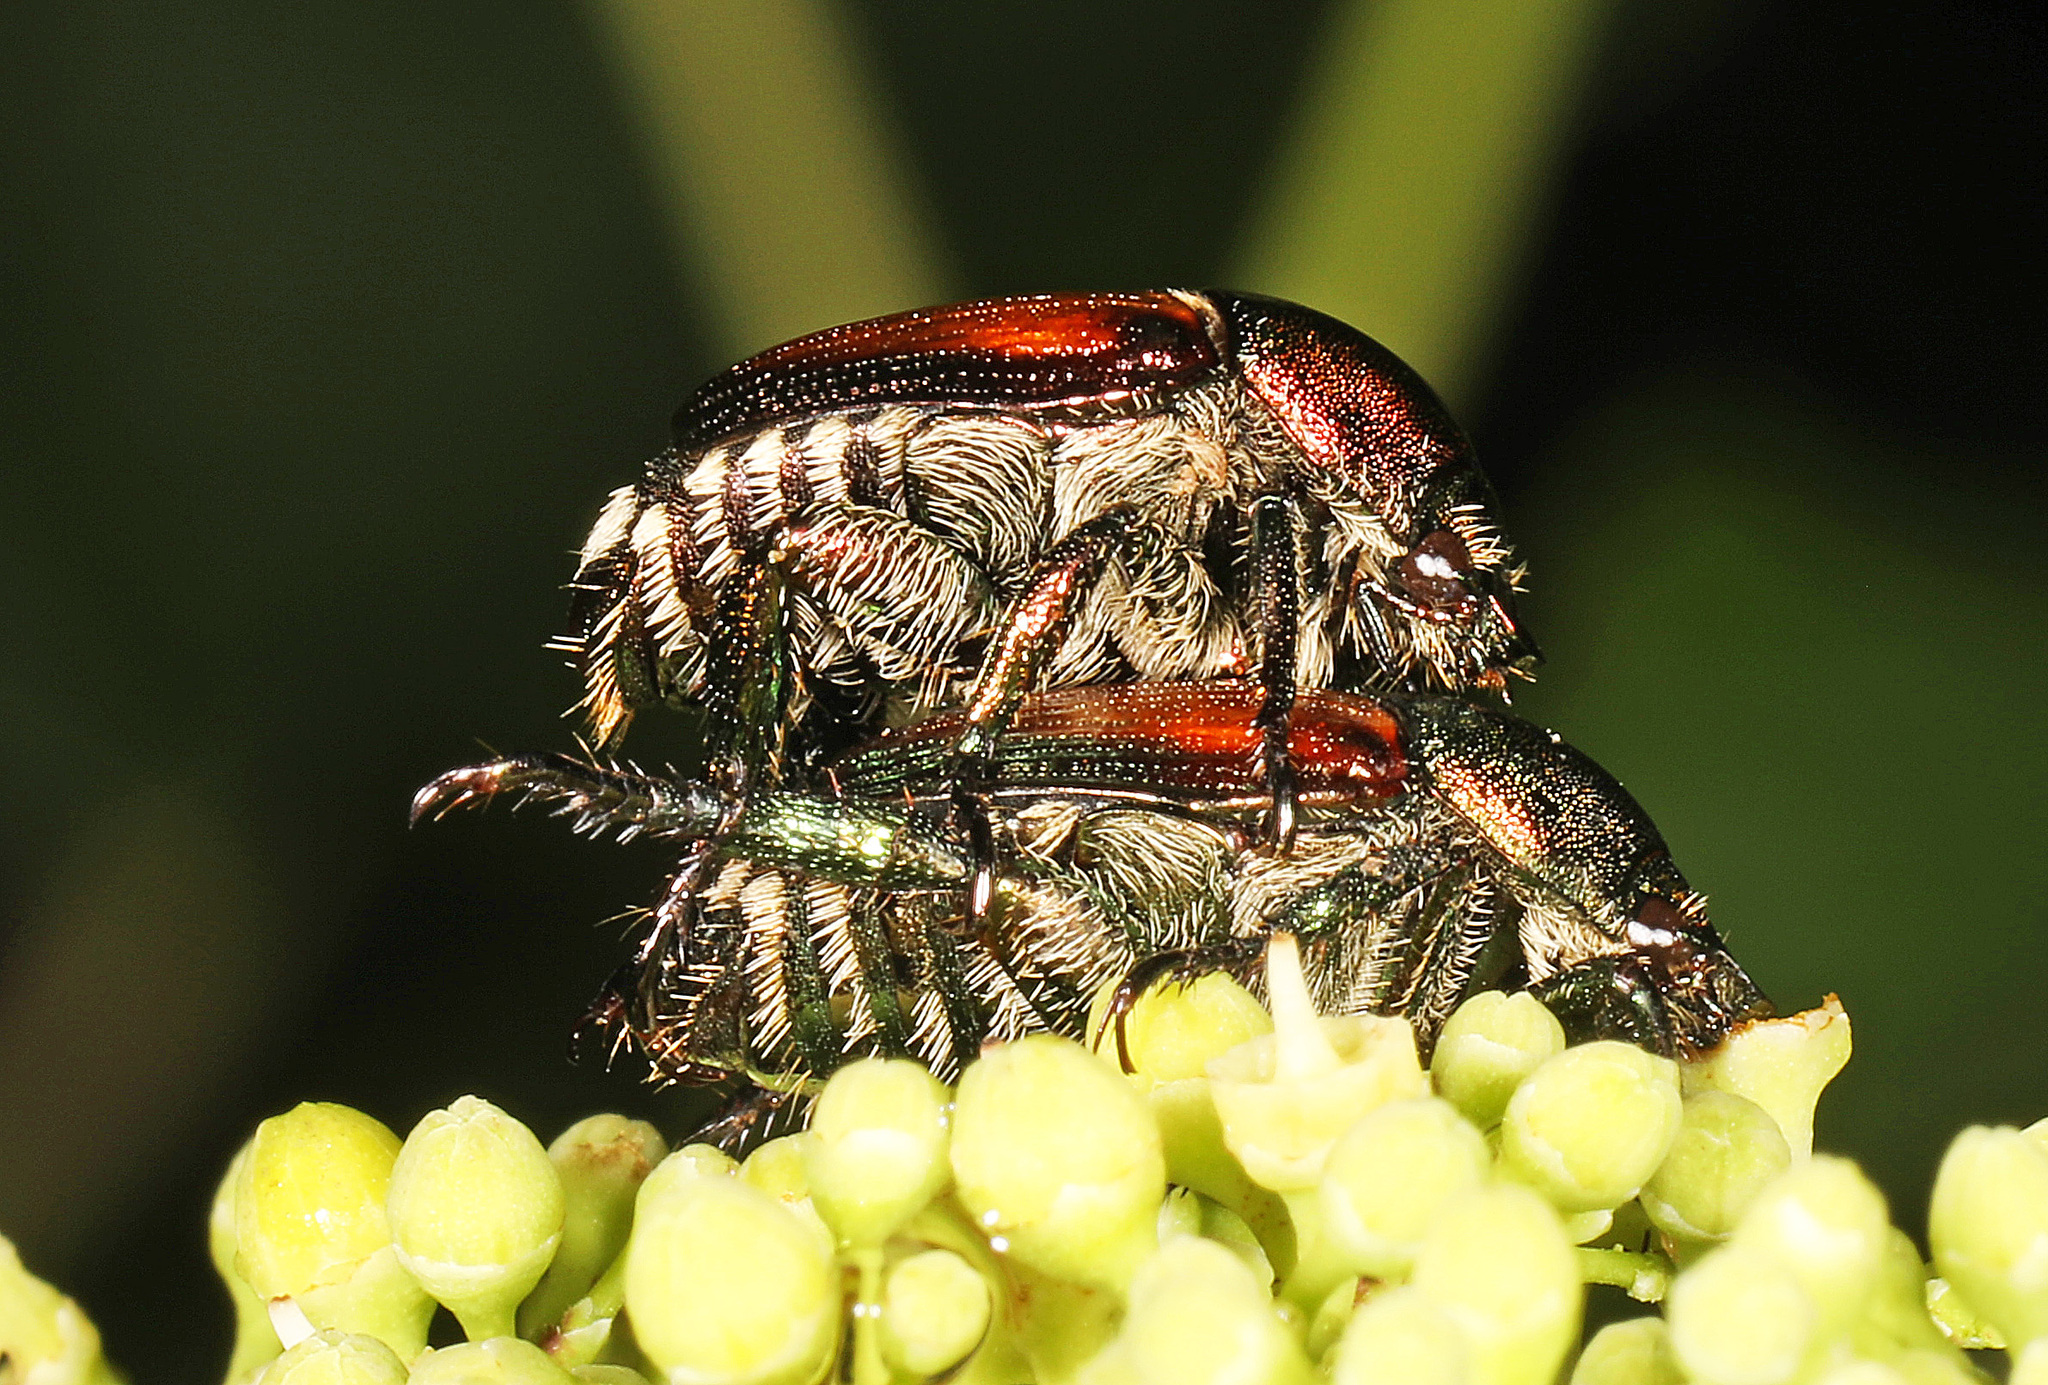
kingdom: Animalia
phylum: Arthropoda
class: Insecta
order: Coleoptera
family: Scarabaeidae
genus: Popillia
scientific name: Popillia japonica
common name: Japanese beetle
